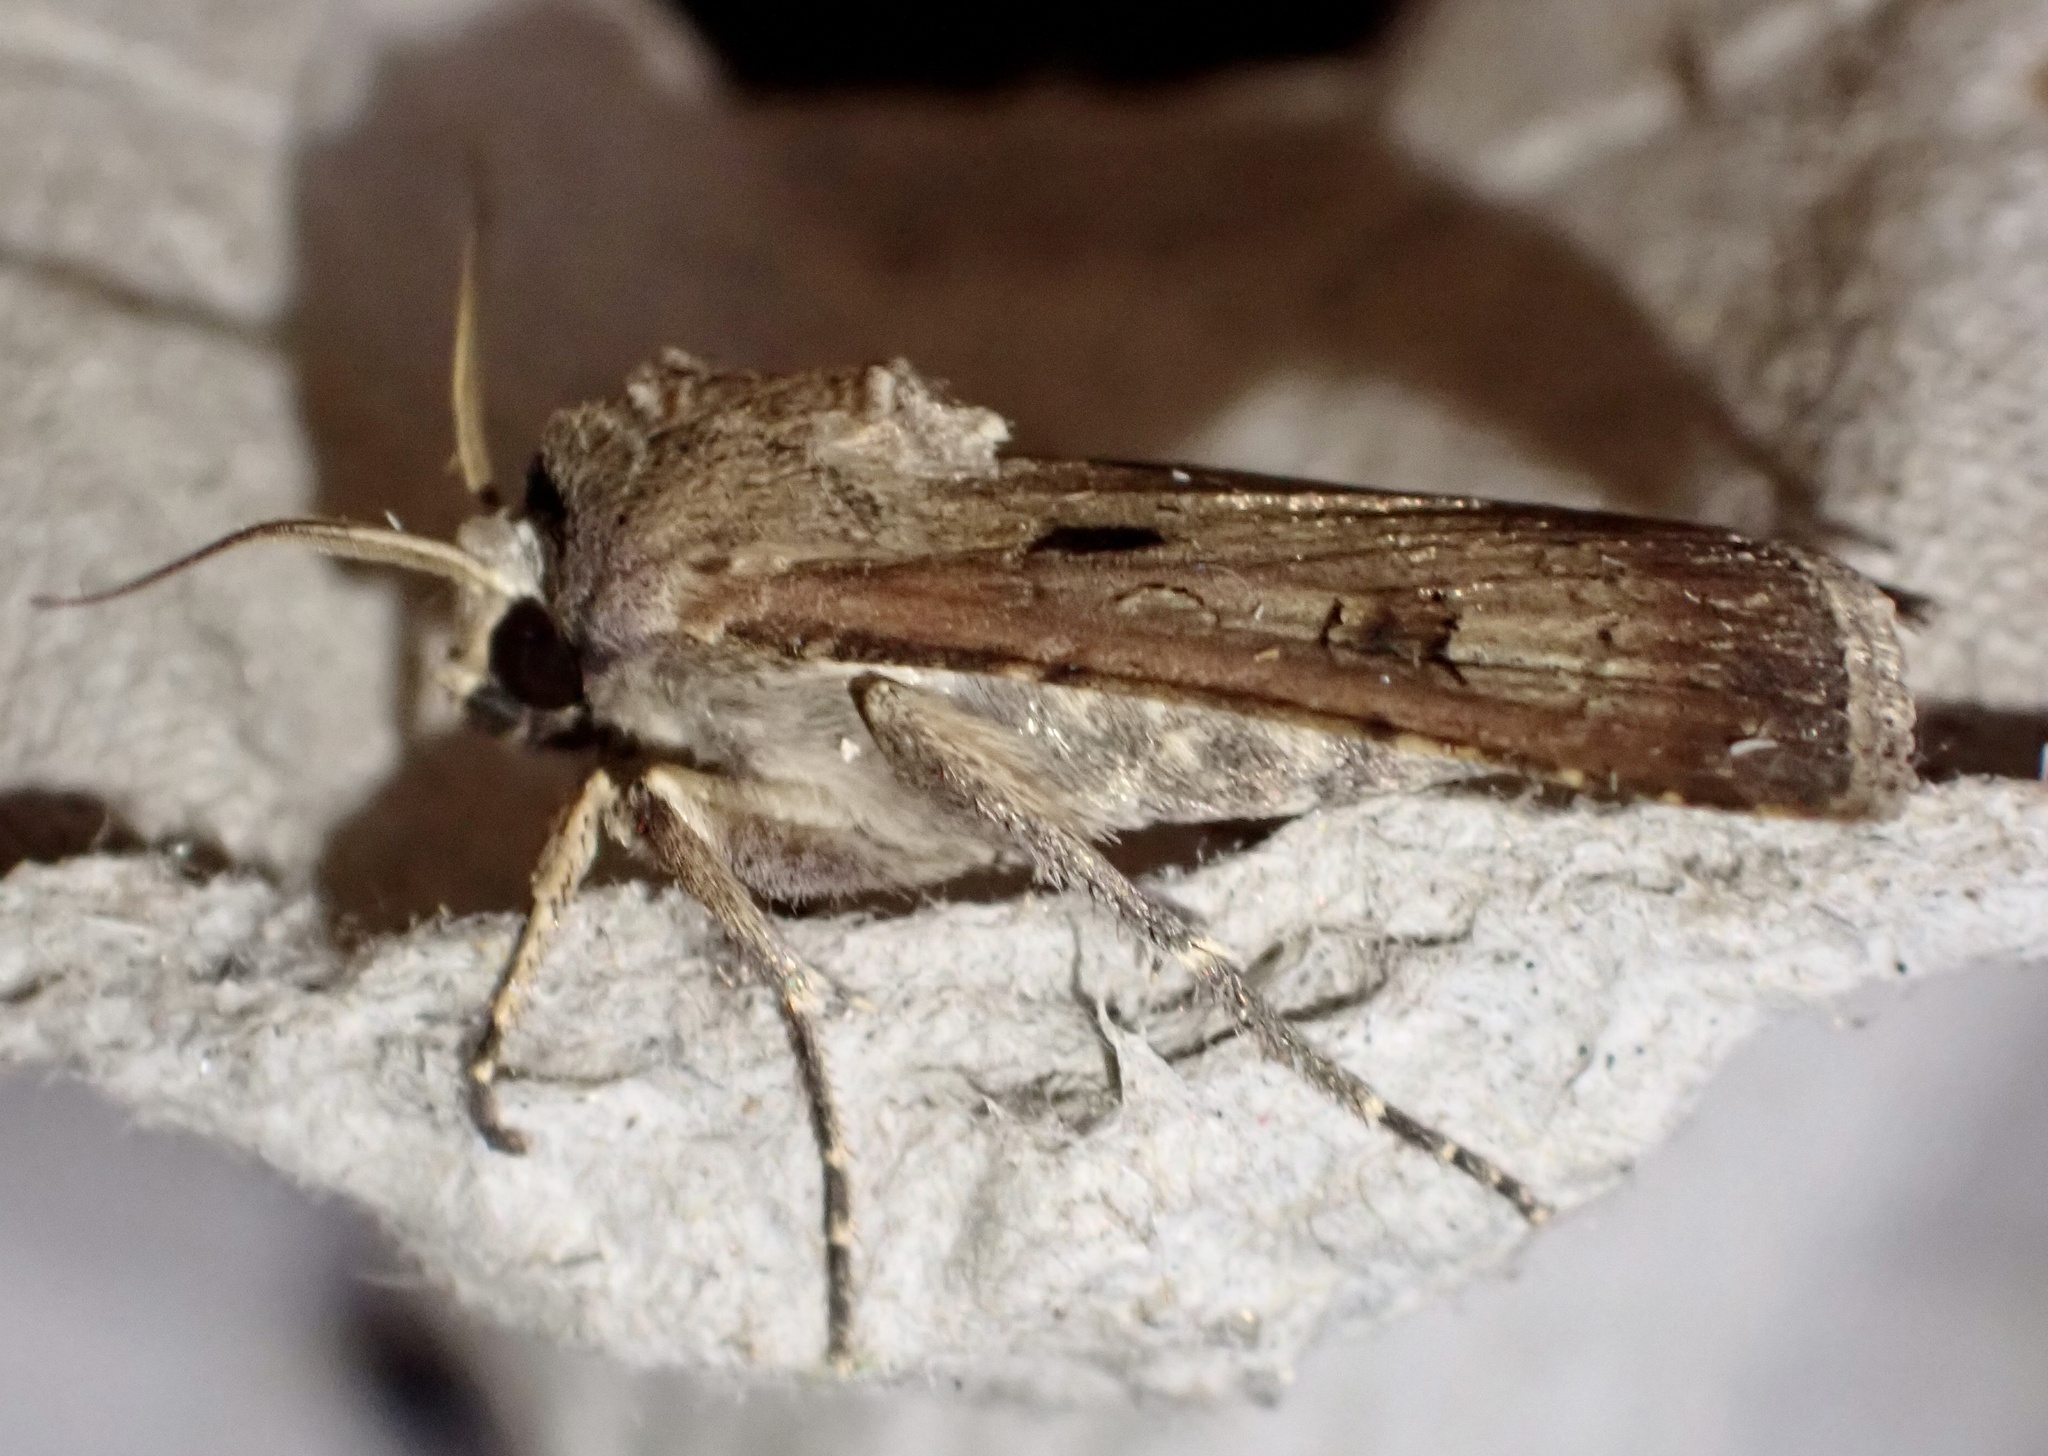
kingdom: Animalia
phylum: Arthropoda
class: Insecta
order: Lepidoptera
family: Noctuidae
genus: Agrotis
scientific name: Agrotis exclamationis
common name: Heart and dart
